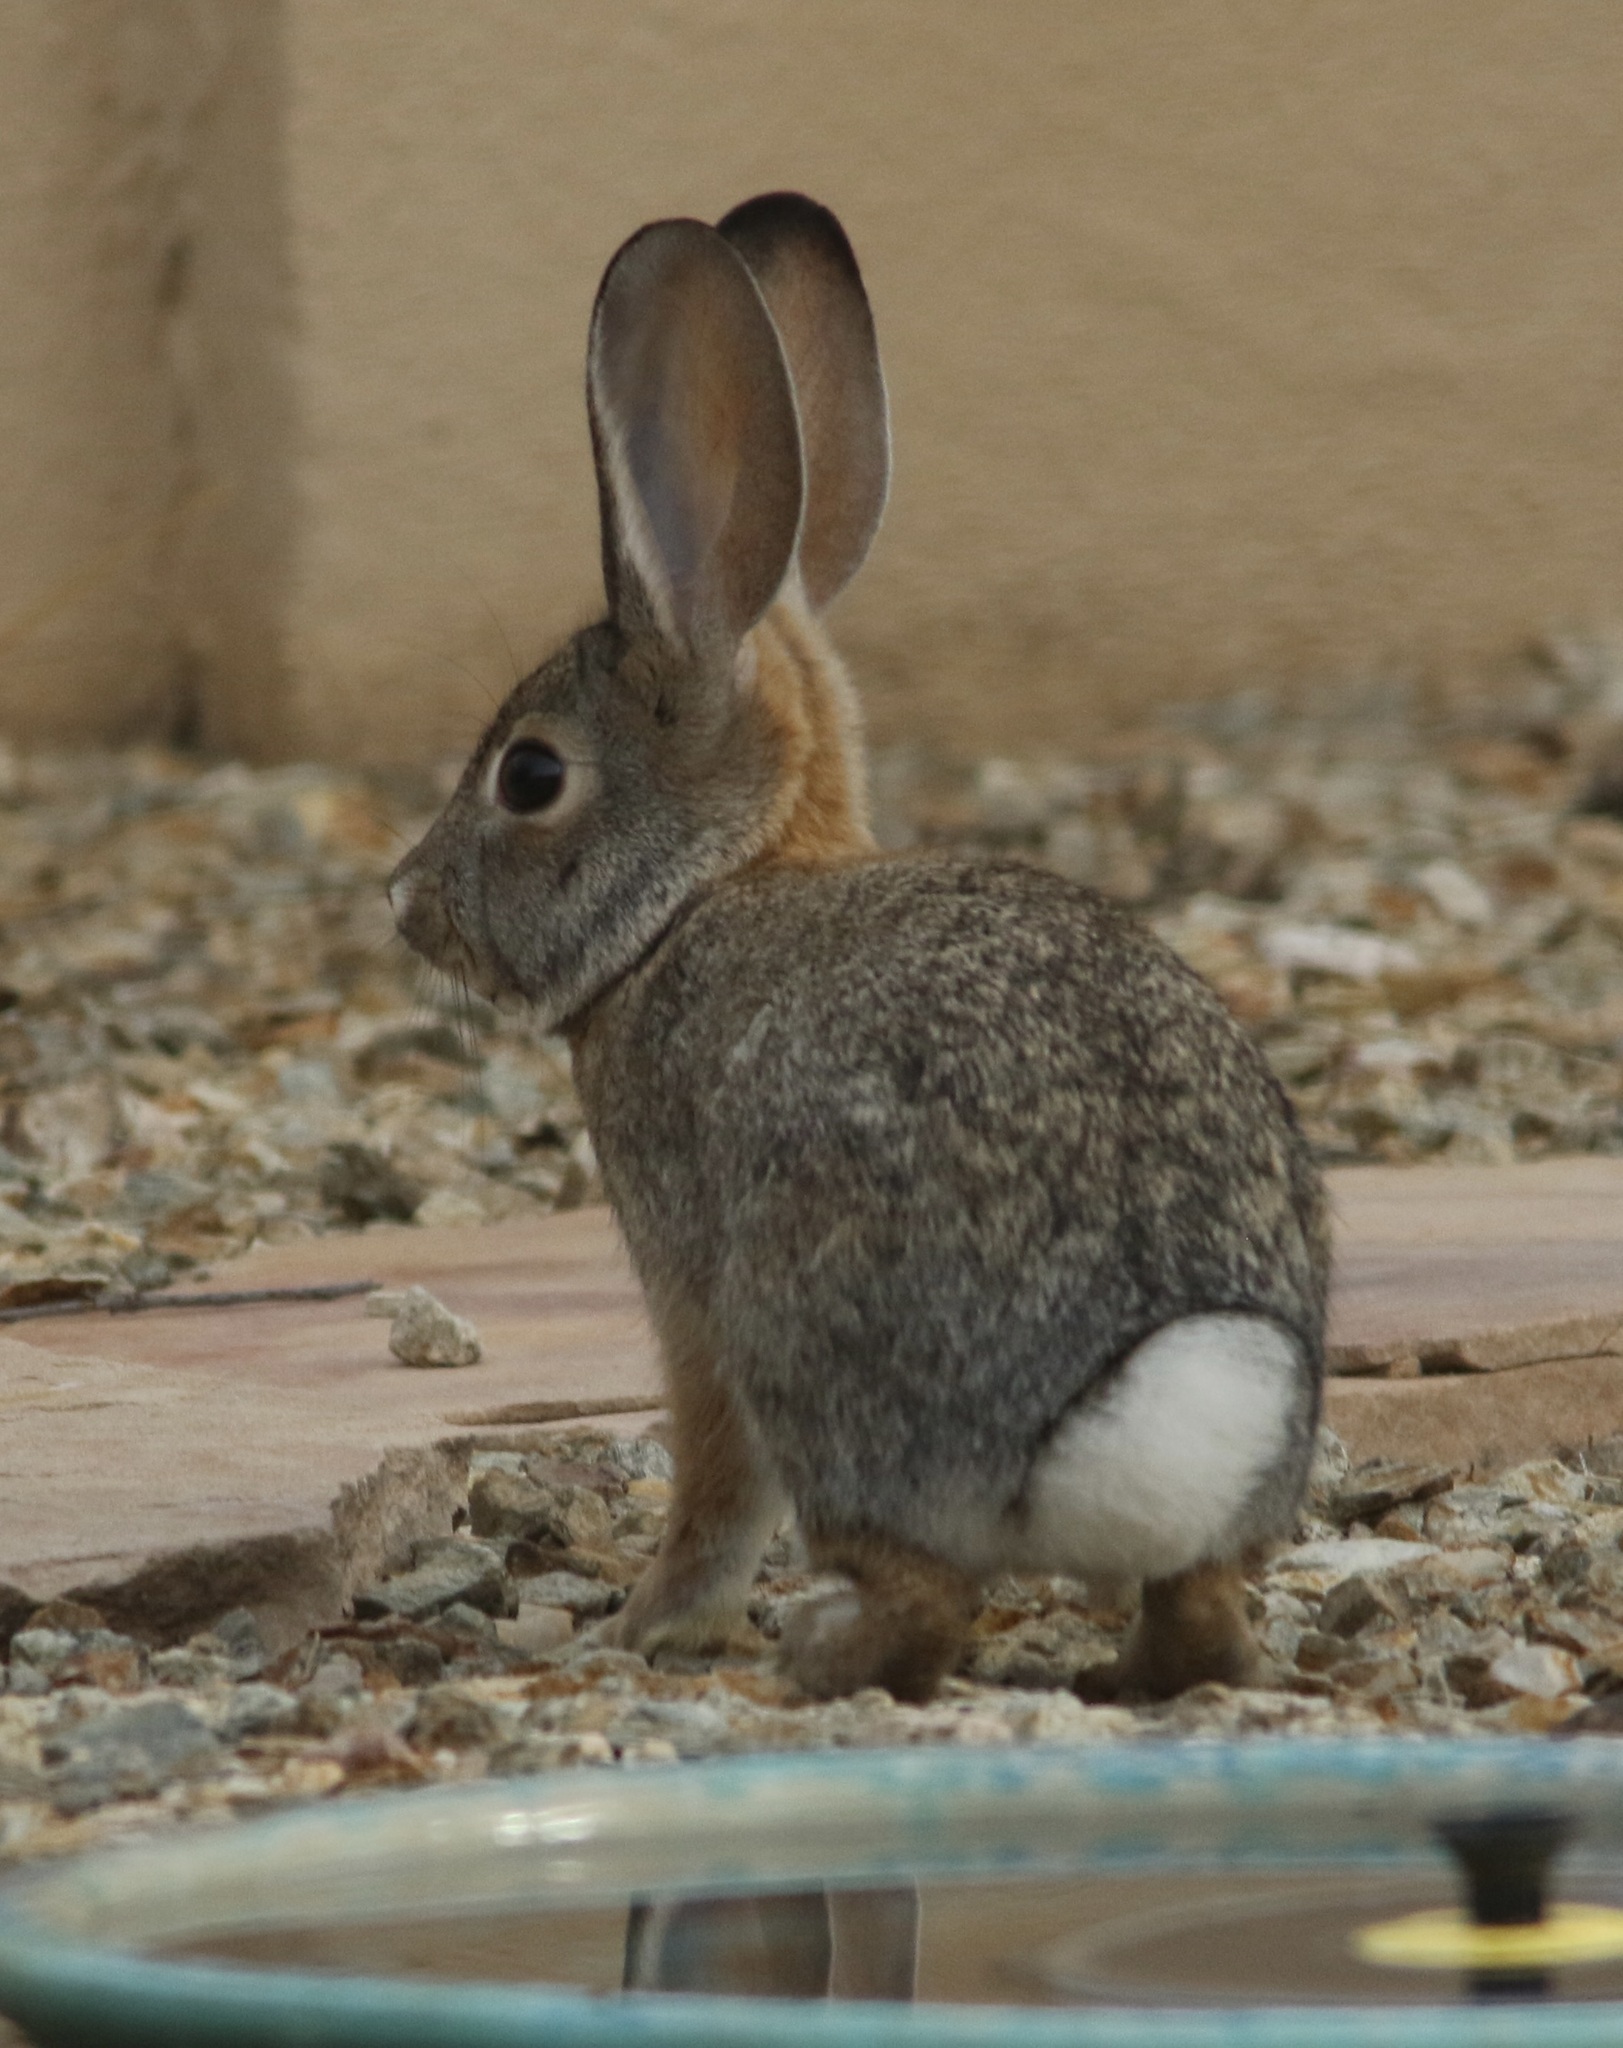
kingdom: Animalia
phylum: Chordata
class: Mammalia
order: Lagomorpha
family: Leporidae
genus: Sylvilagus
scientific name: Sylvilagus audubonii
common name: Desert cottontail
